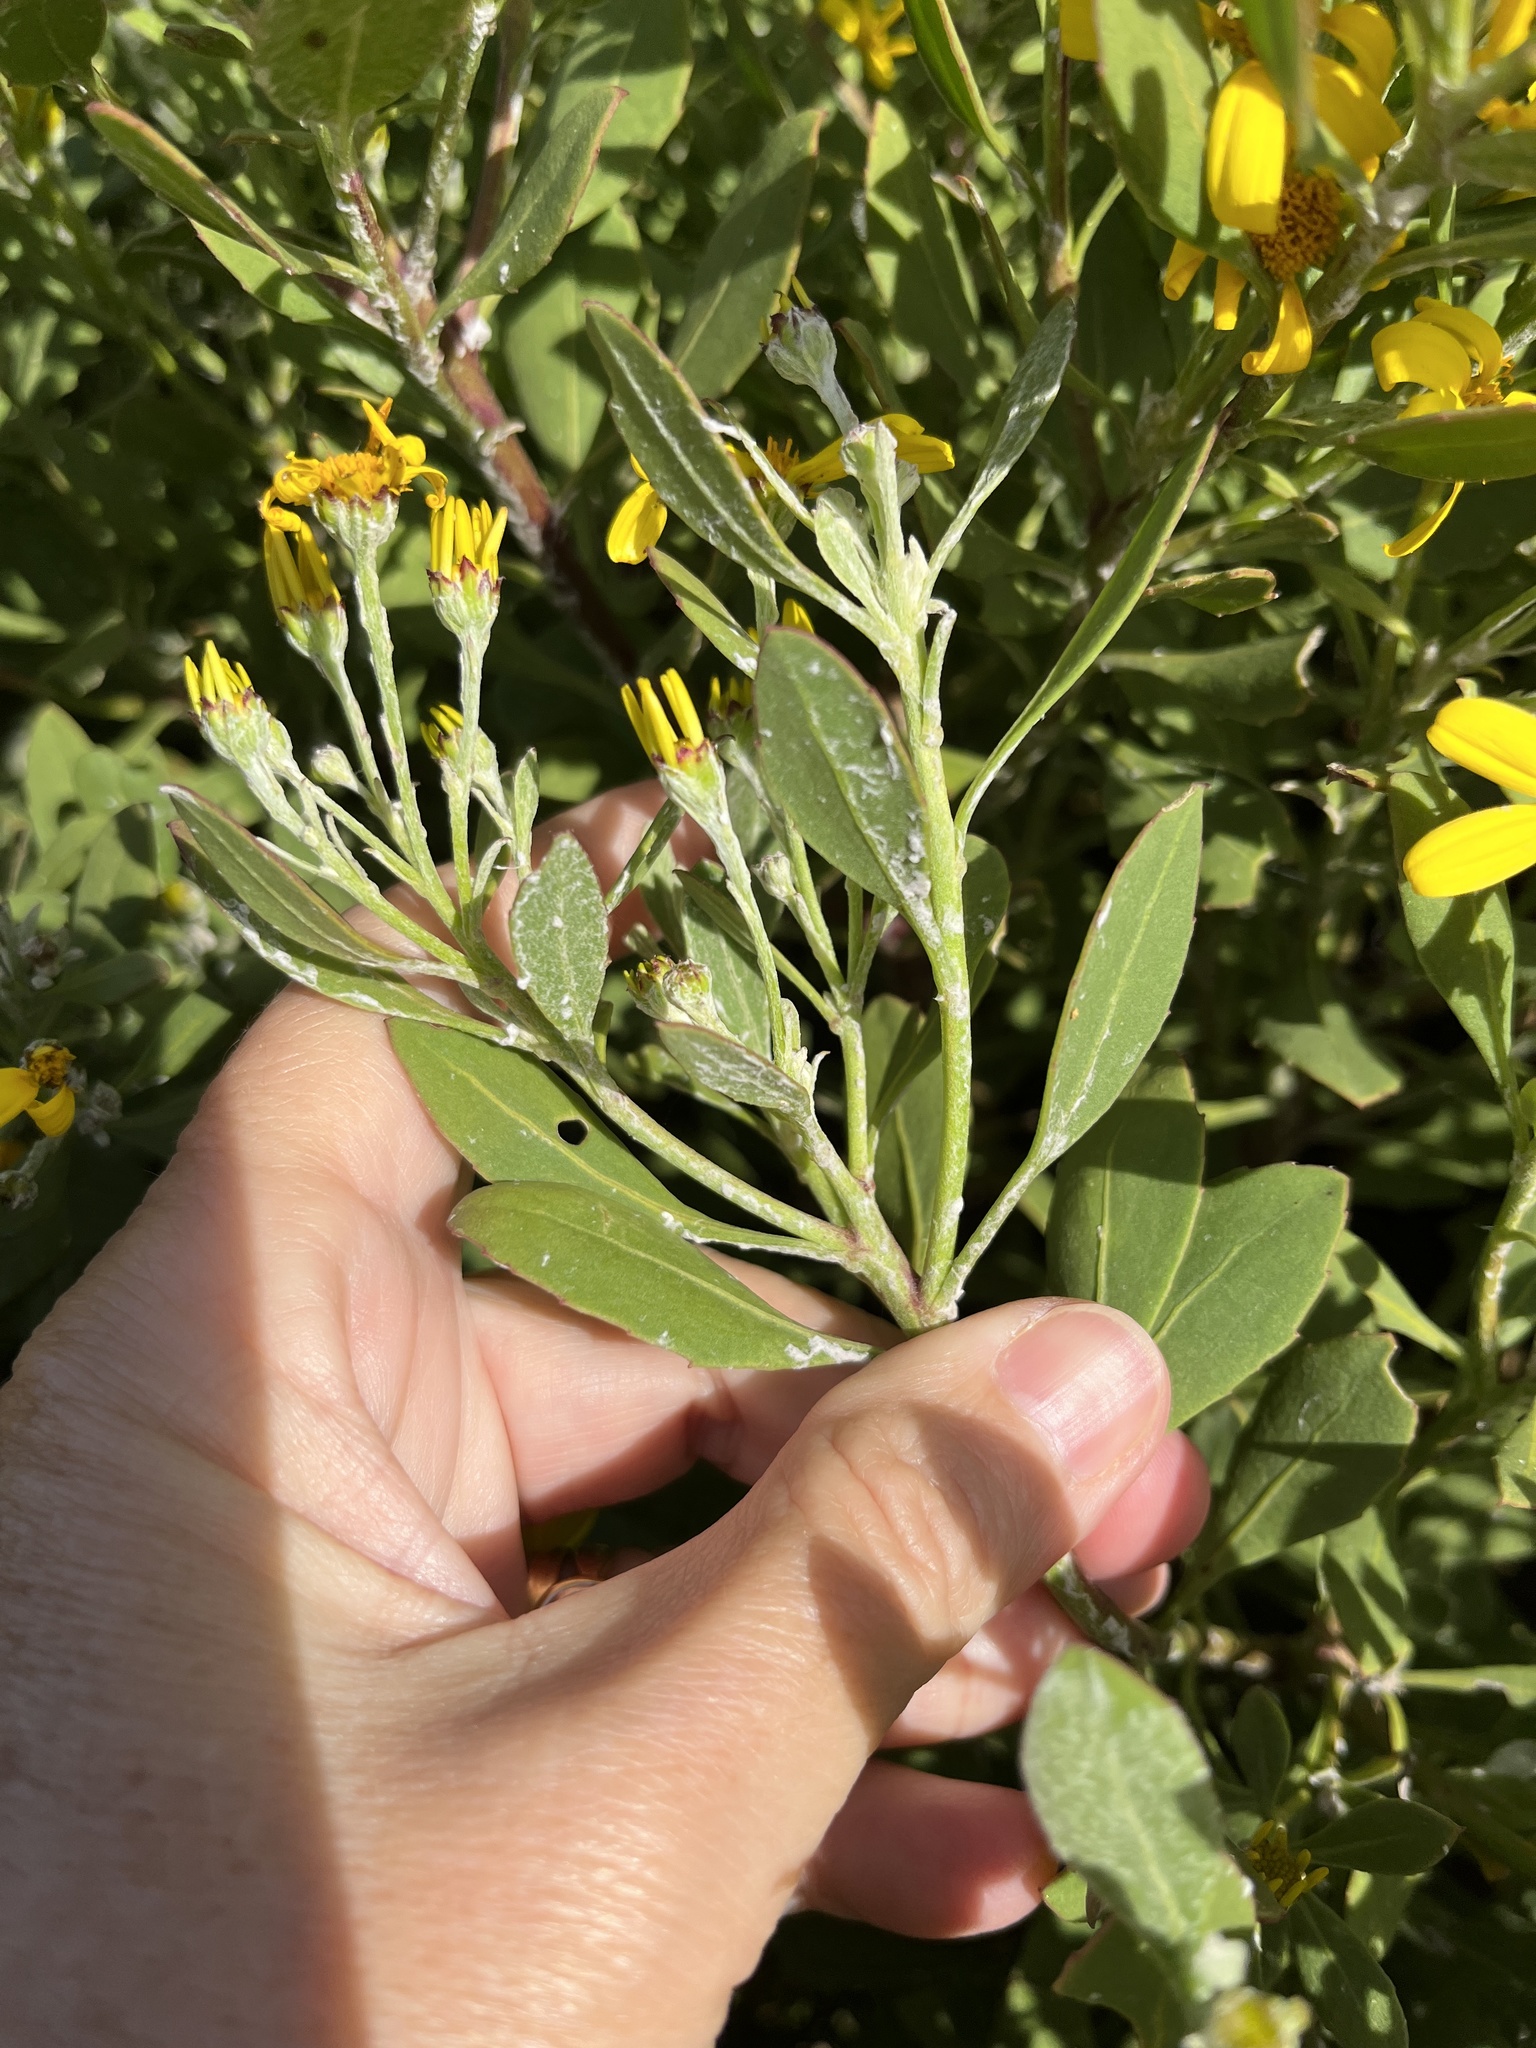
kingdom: Plantae
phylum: Tracheophyta
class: Magnoliopsida
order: Asterales
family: Asteraceae
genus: Osteospermum
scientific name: Osteospermum moniliferum
